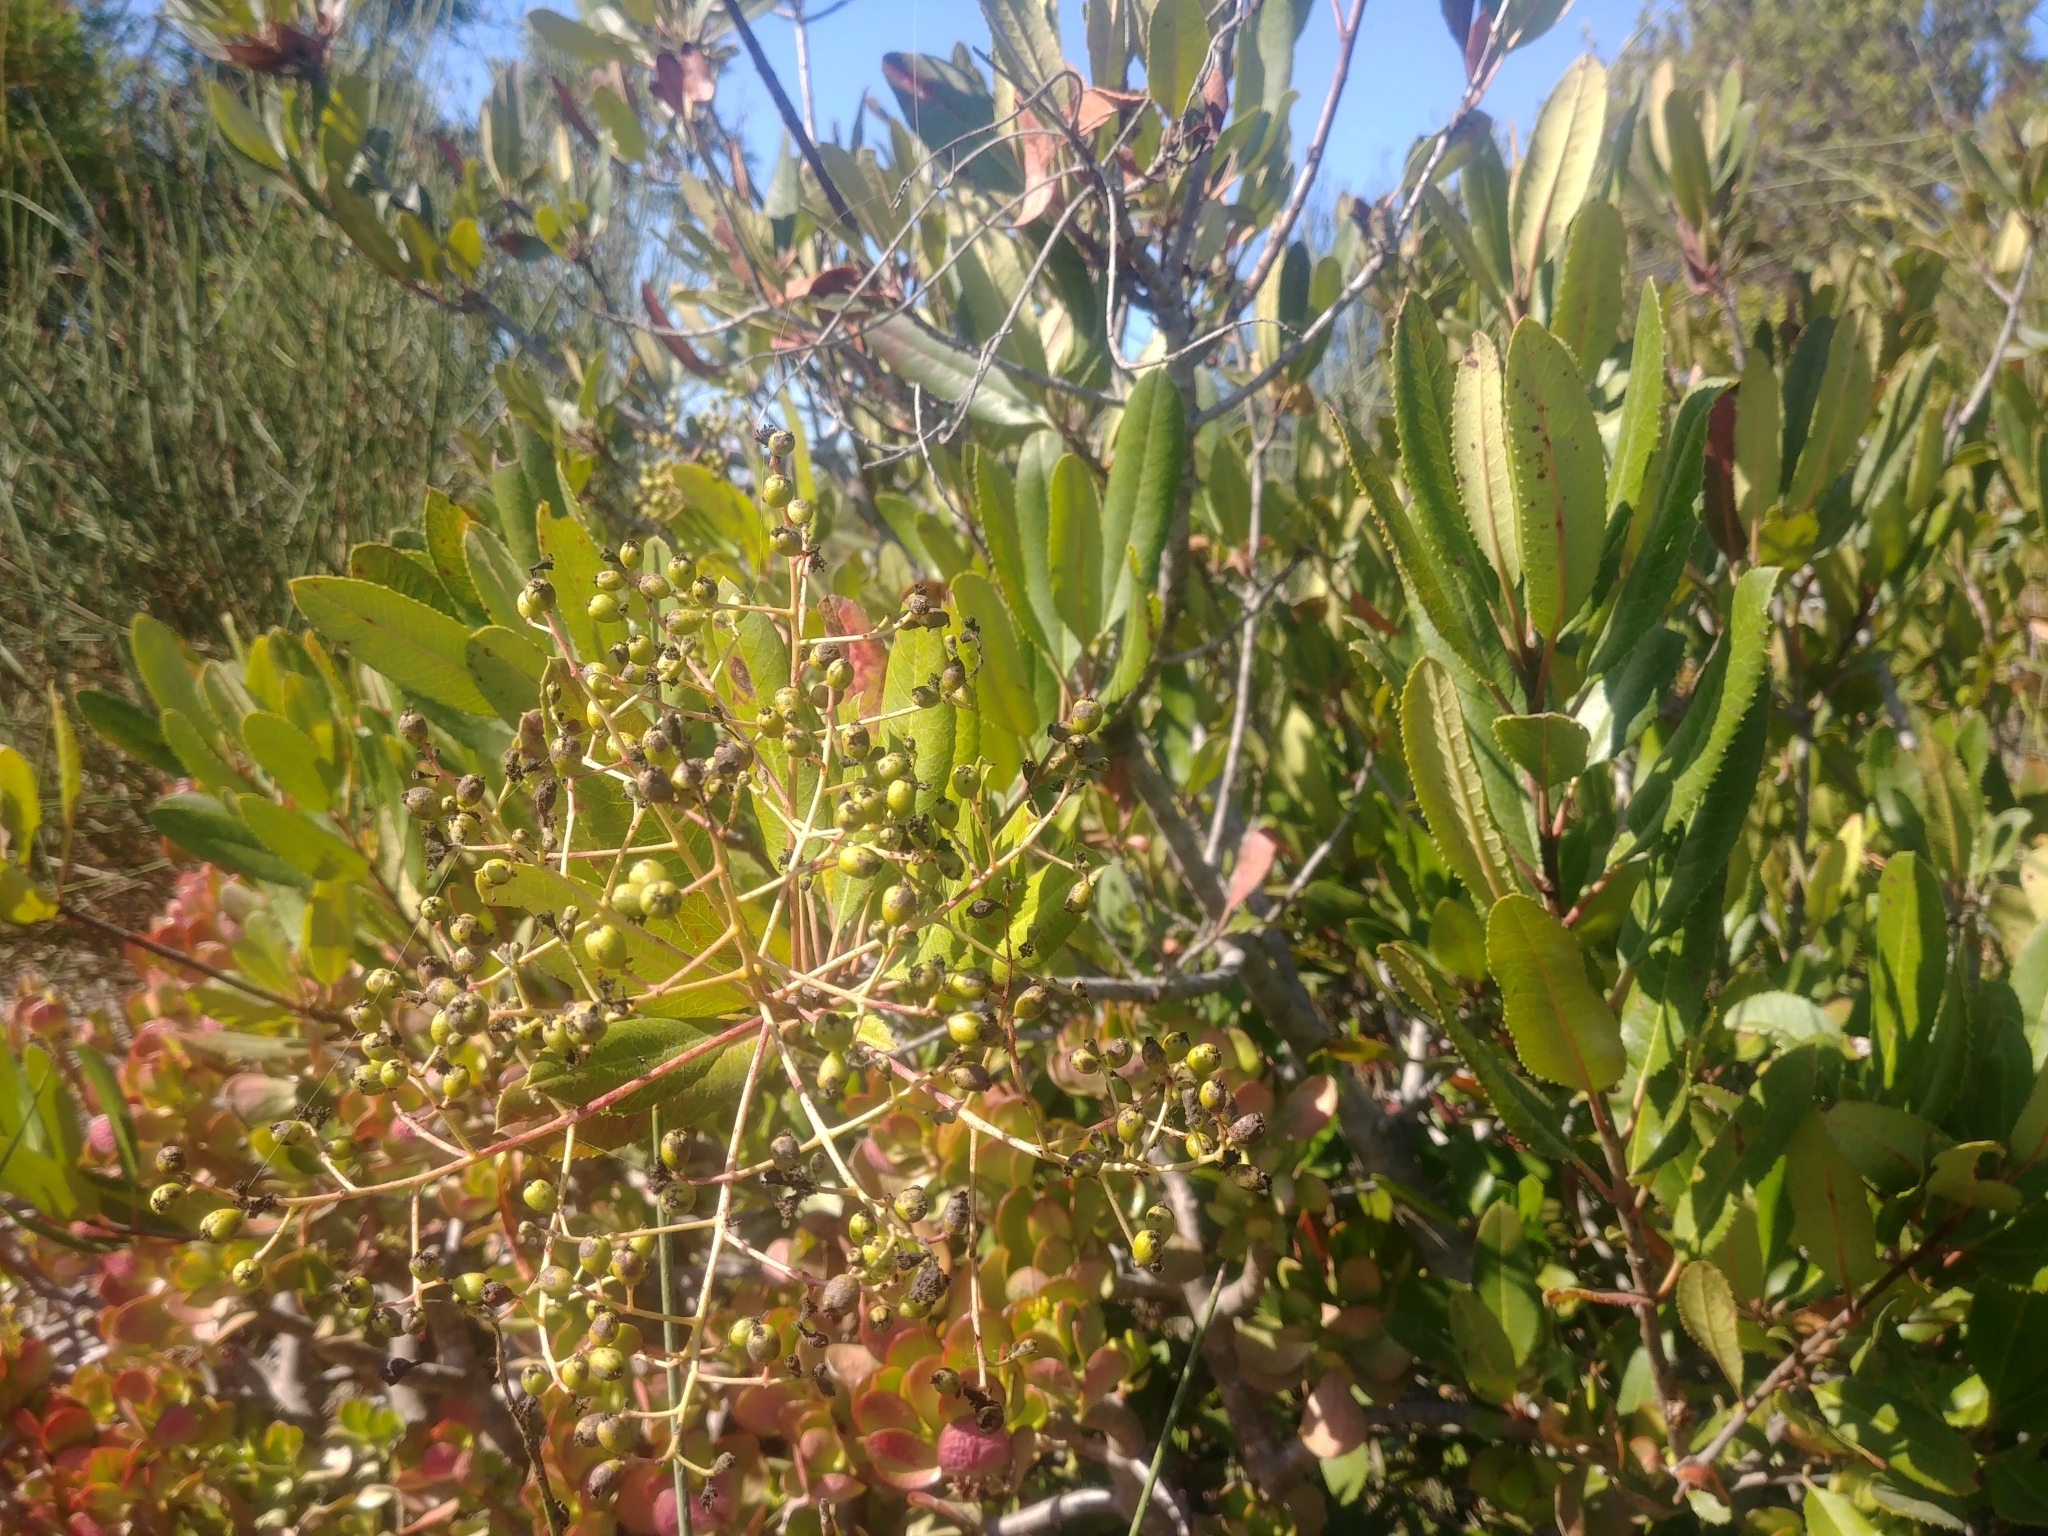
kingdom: Plantae
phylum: Tracheophyta
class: Magnoliopsida
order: Rosales
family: Rosaceae
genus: Heteromeles
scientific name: Heteromeles arbutifolia
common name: California-holly
